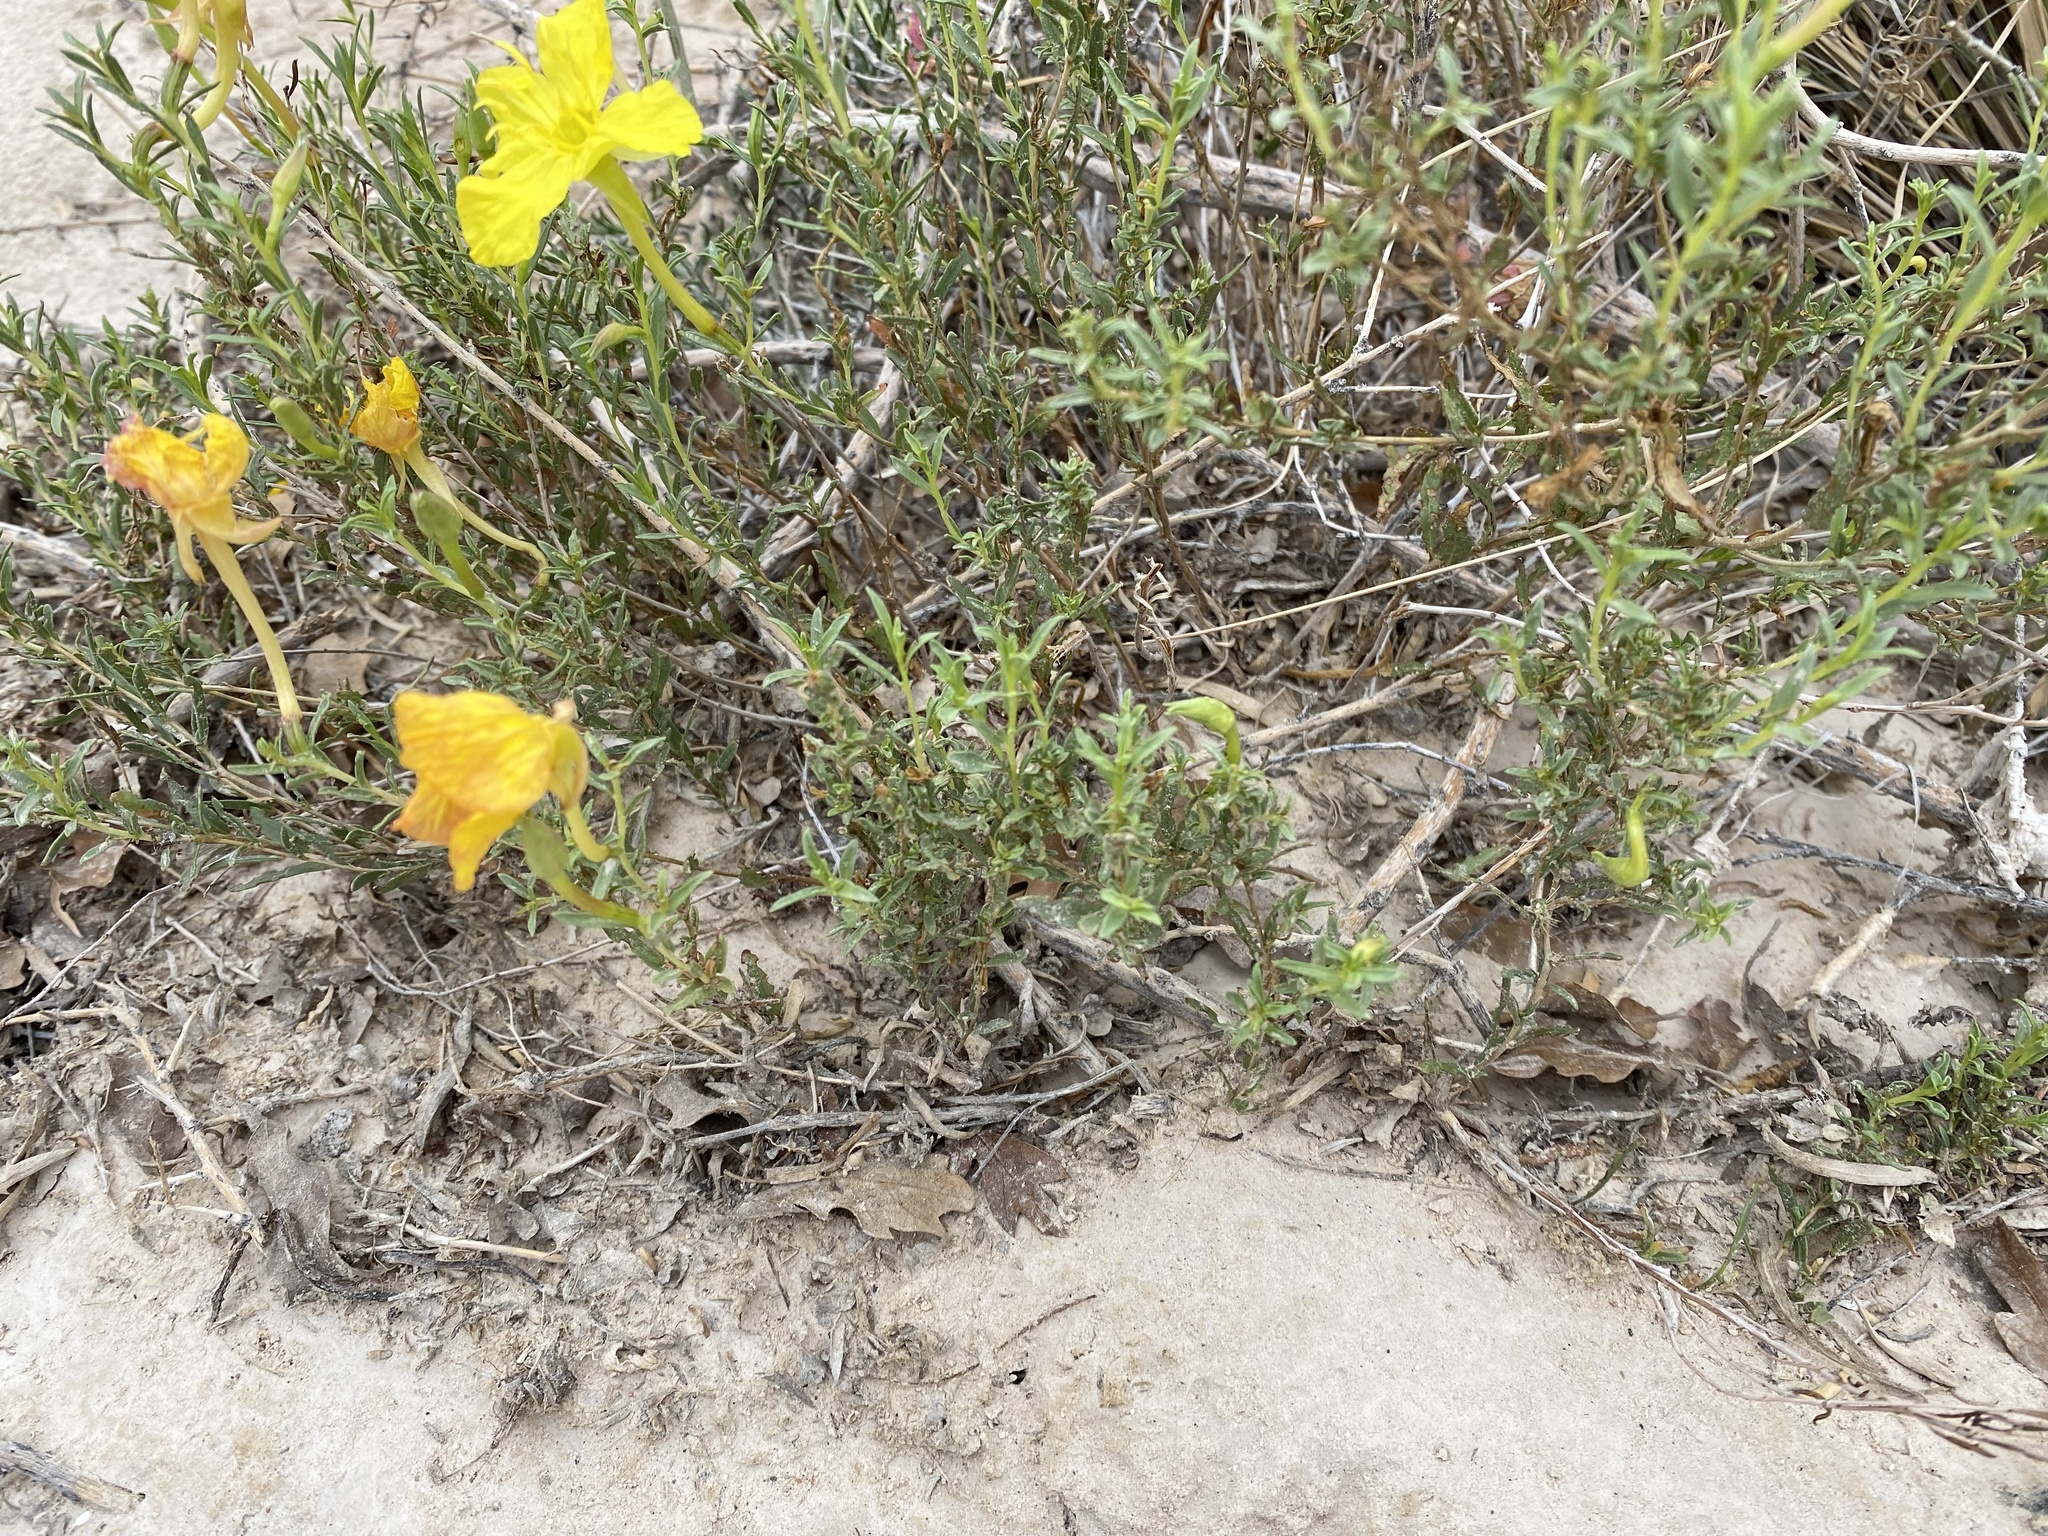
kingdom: Plantae
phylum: Tracheophyta
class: Magnoliopsida
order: Myrtales
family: Onagraceae
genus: Oenothera
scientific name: Oenothera hartwegii
